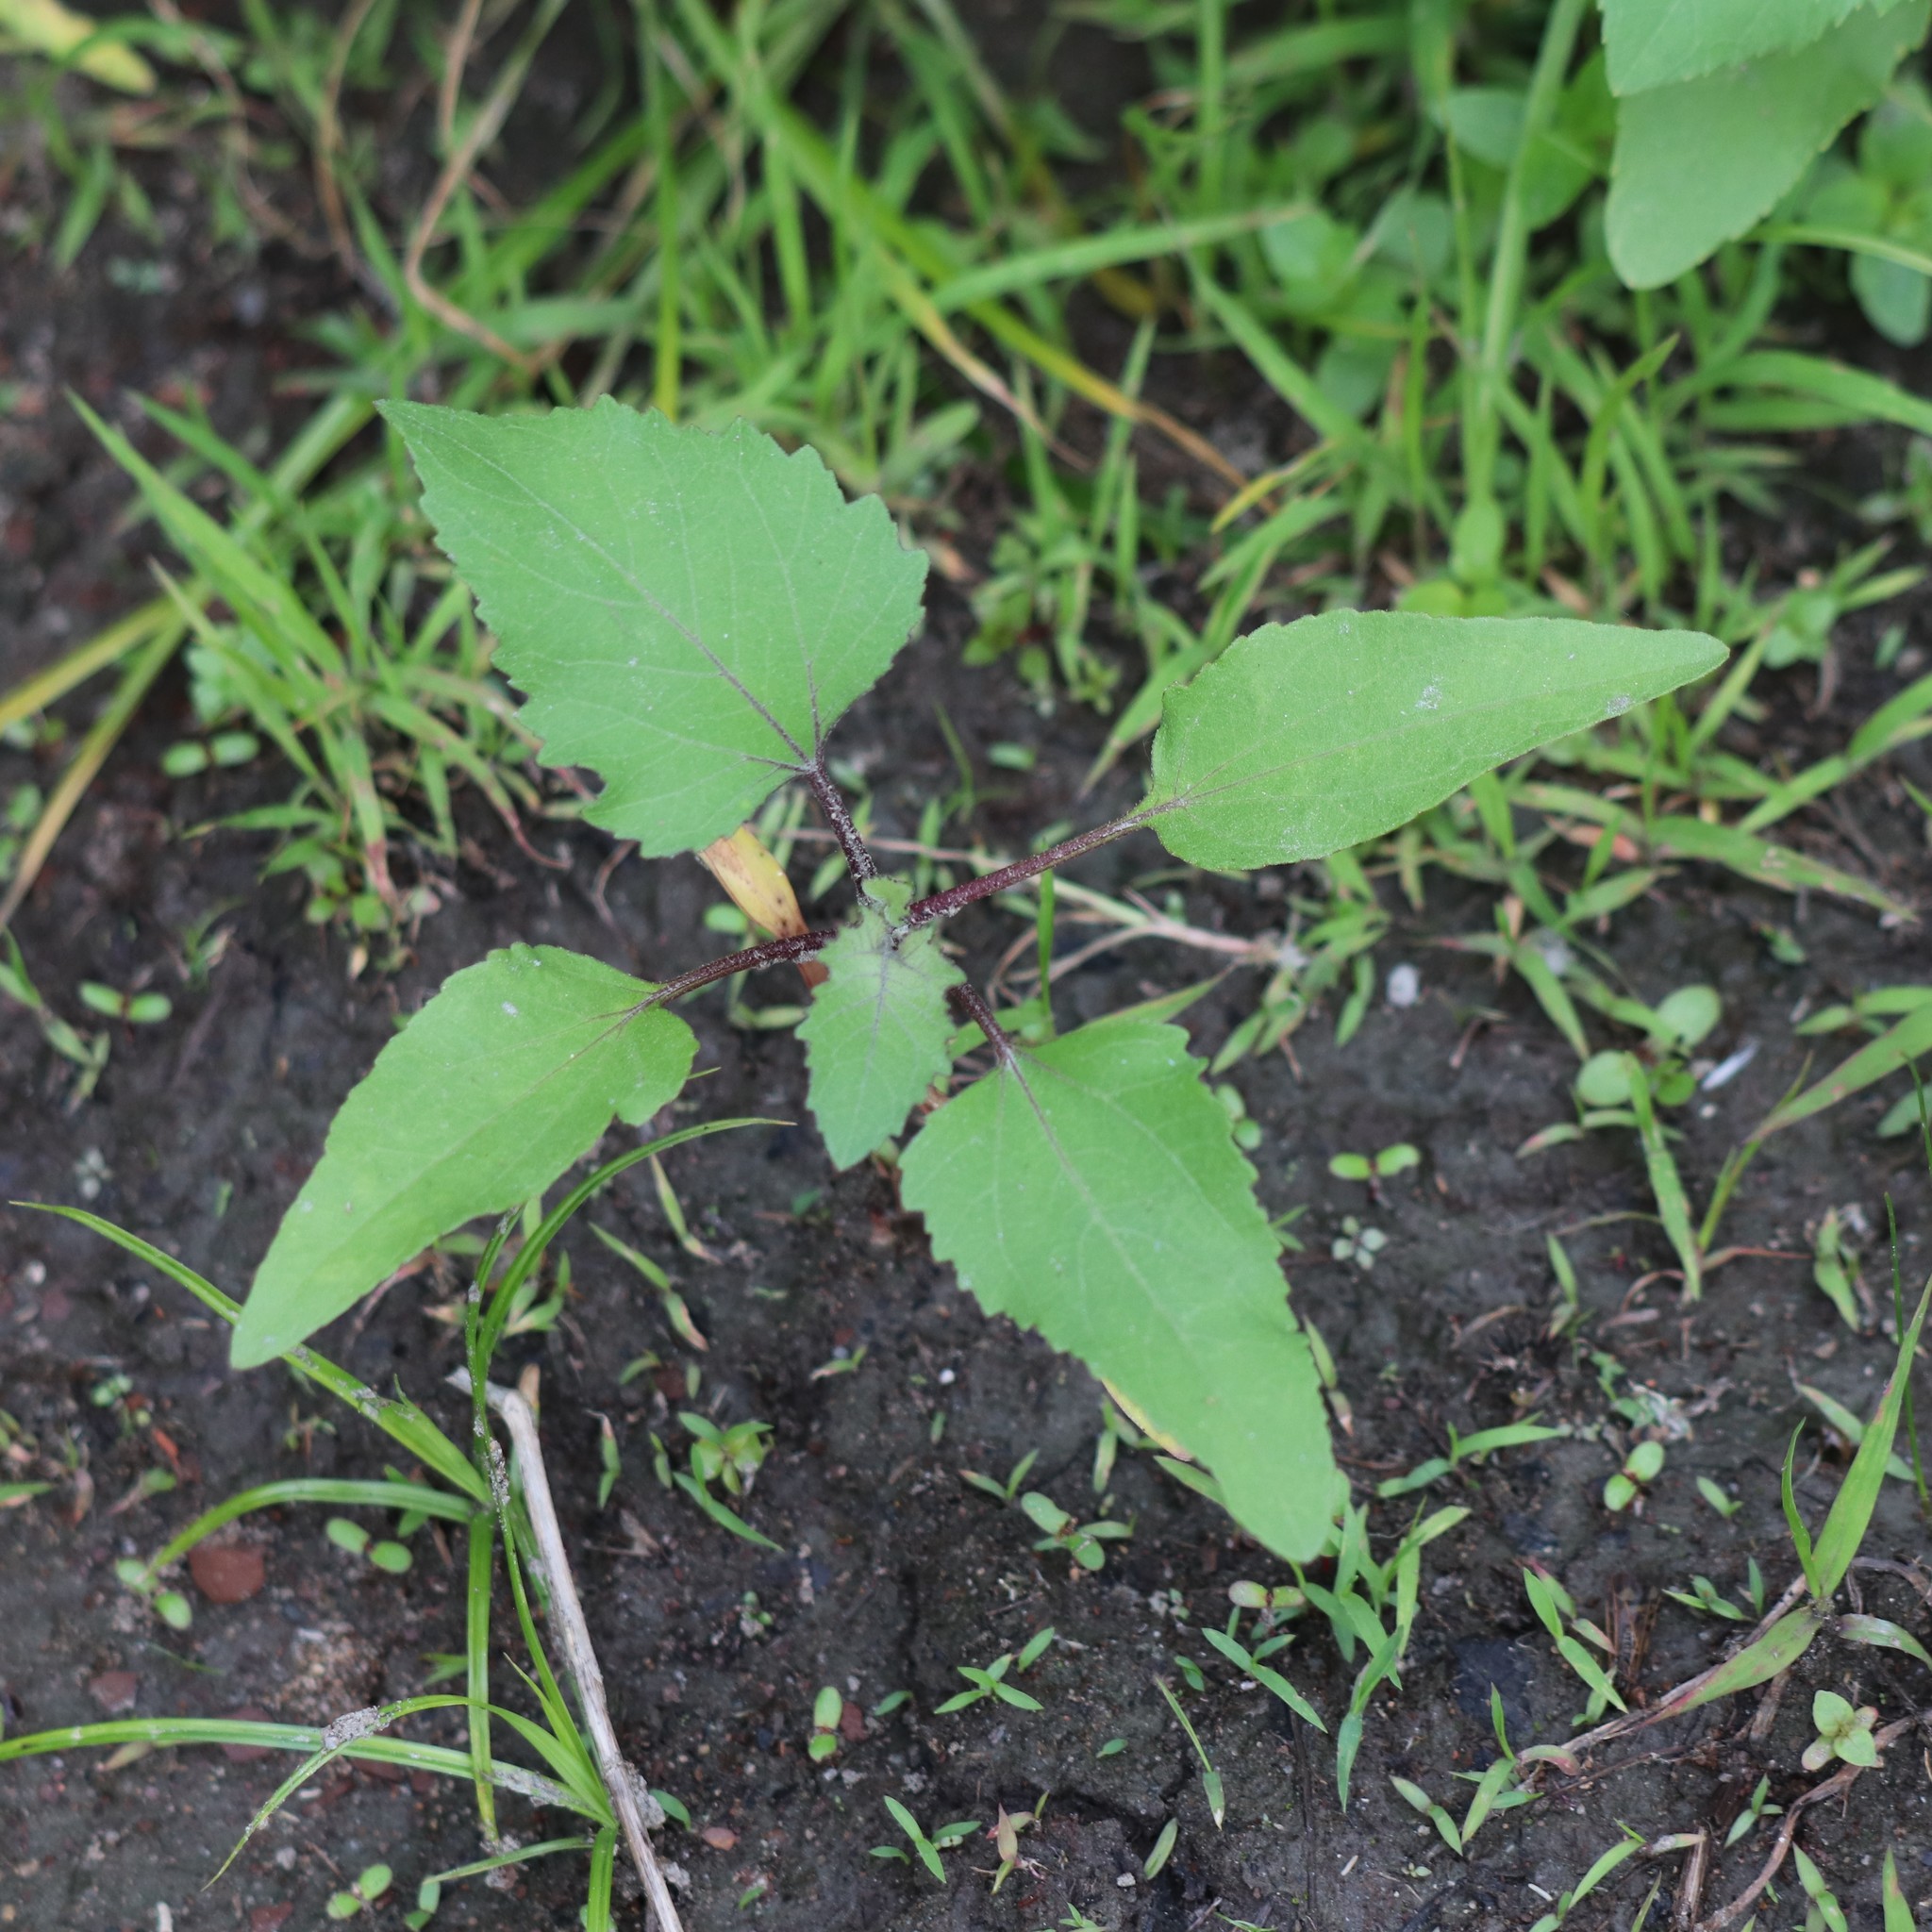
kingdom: Plantae
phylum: Tracheophyta
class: Magnoliopsida
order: Asterales
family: Asteraceae
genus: Xanthium
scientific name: Xanthium strumarium
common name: Rough cocklebur
